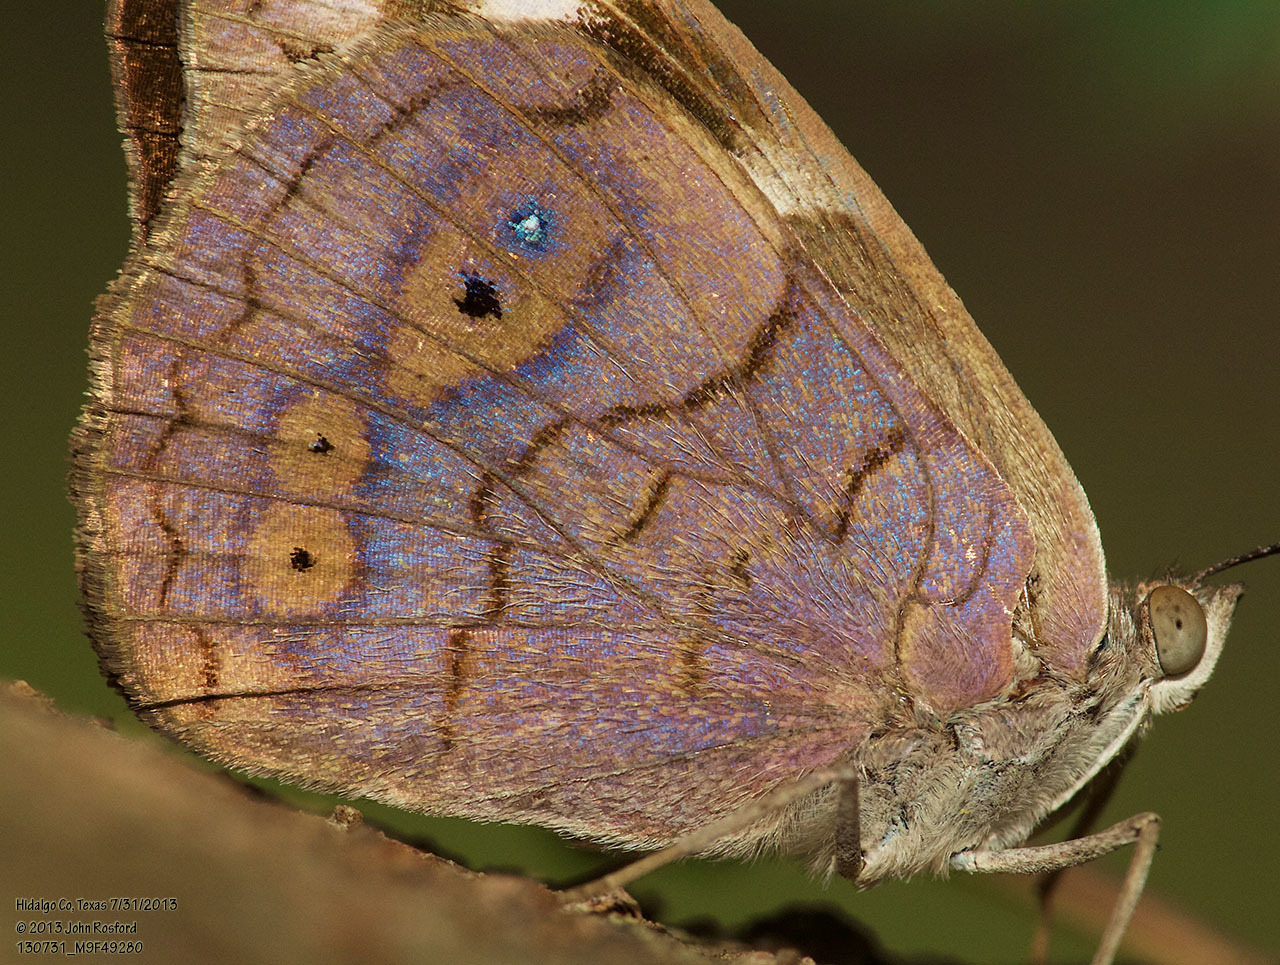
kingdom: Animalia
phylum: Arthropoda
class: Insecta
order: Lepidoptera
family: Nymphalidae
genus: Eunica
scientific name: Eunica monima
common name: Dingy purplewing
